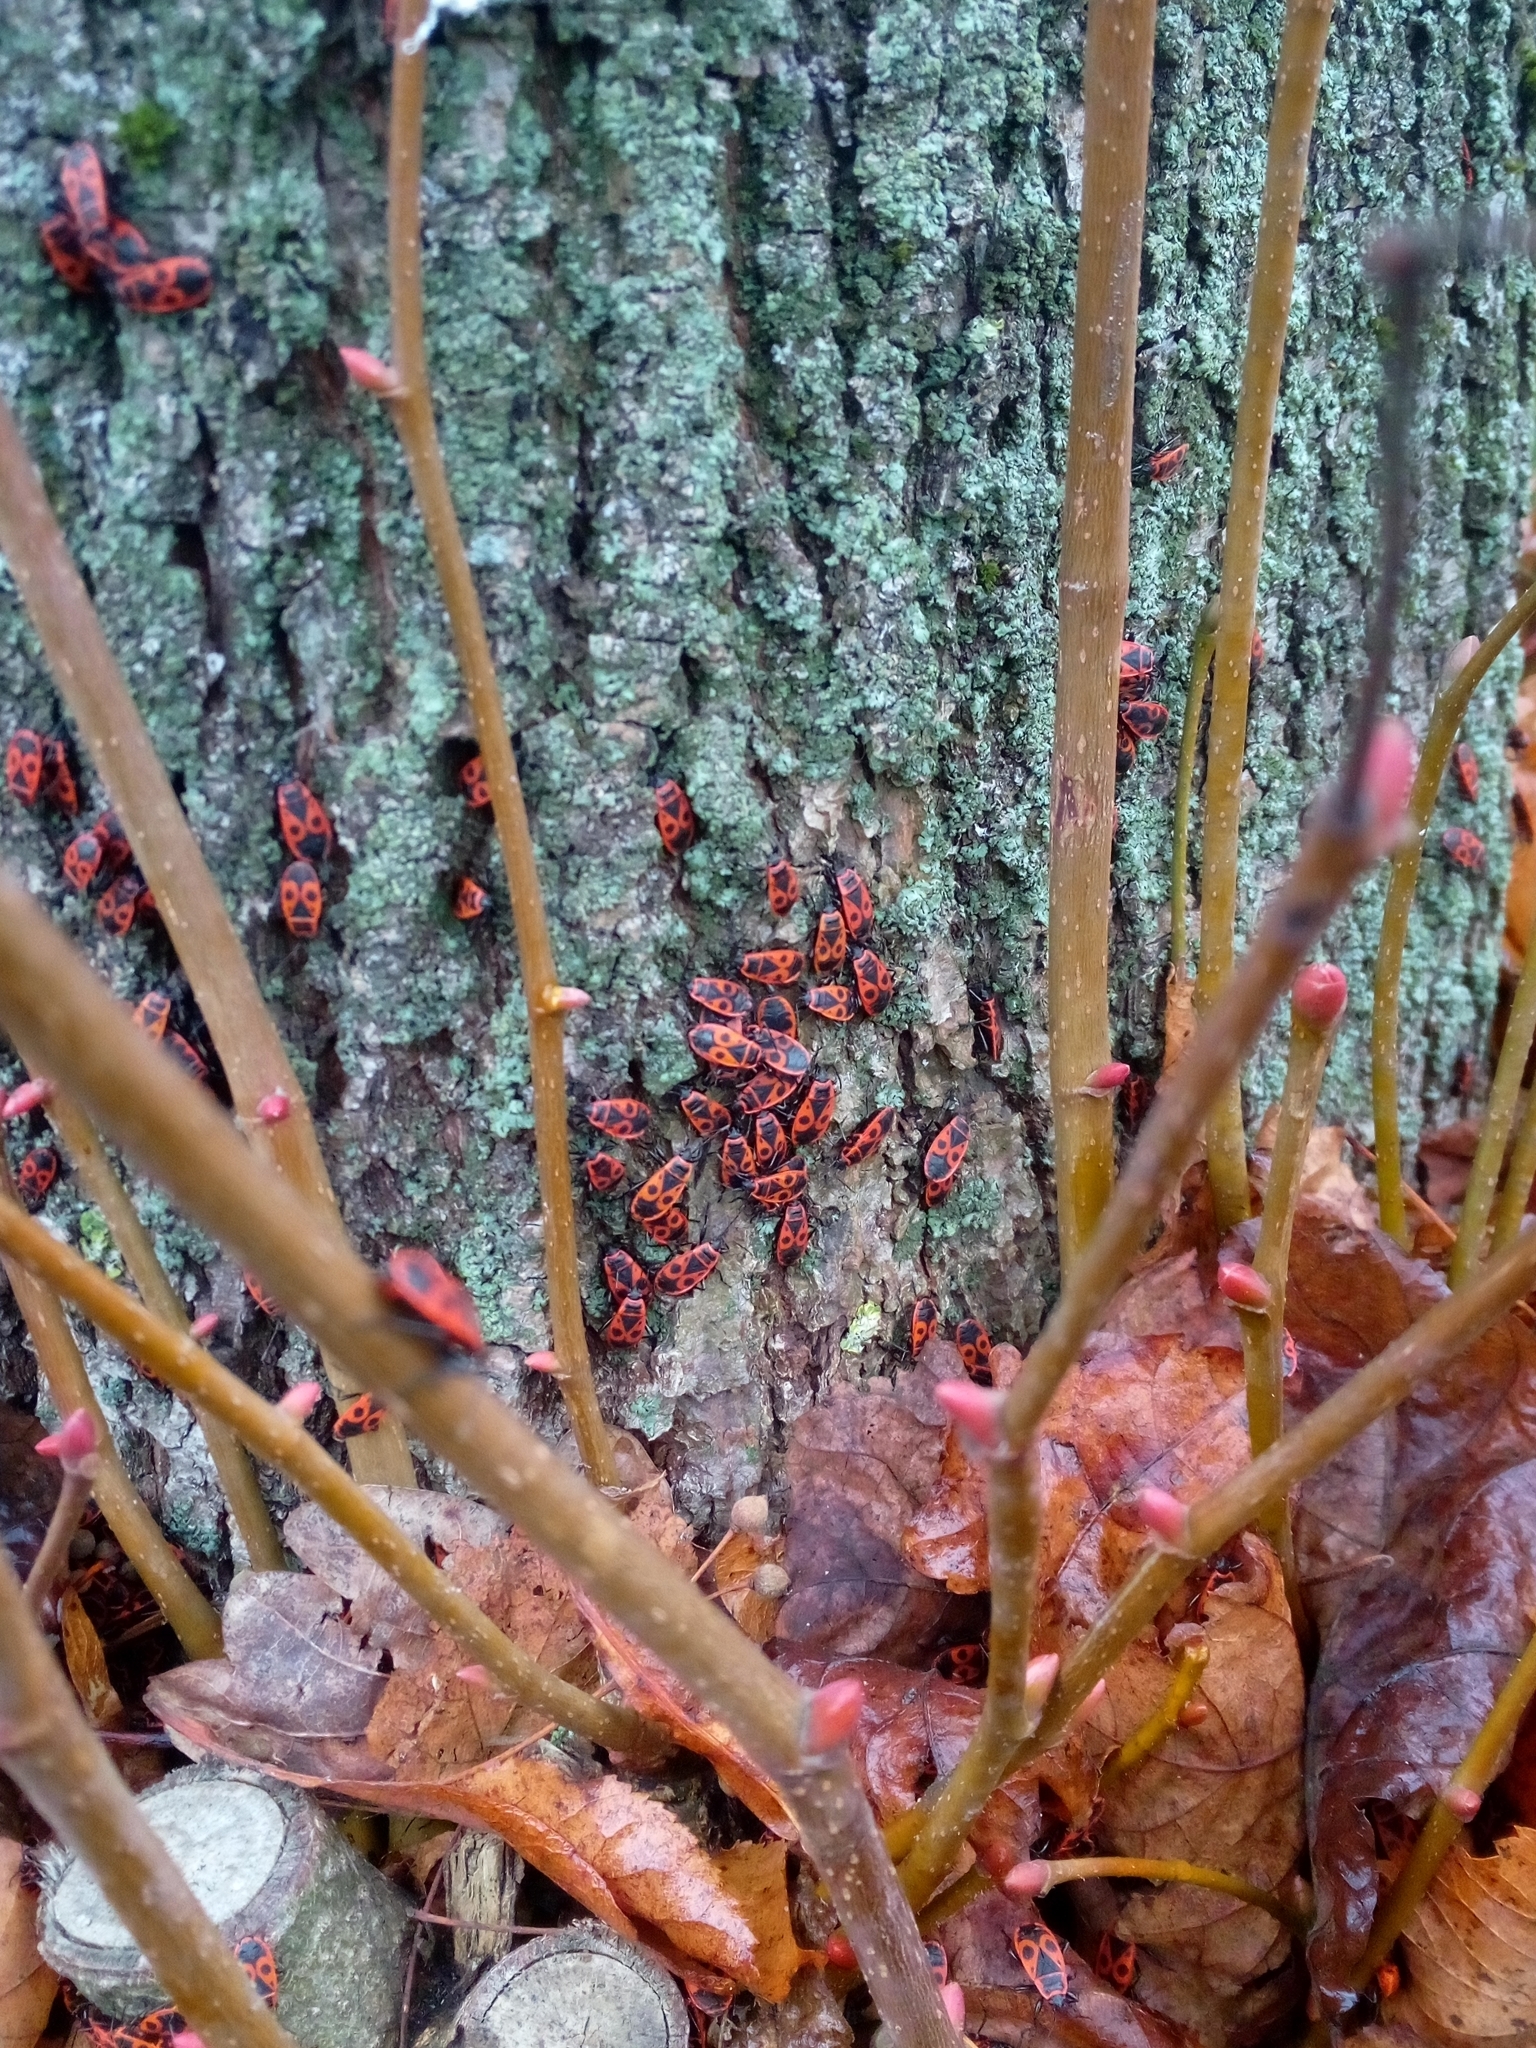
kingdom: Animalia
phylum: Arthropoda
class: Insecta
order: Hemiptera
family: Pyrrhocoridae
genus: Pyrrhocoris
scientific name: Pyrrhocoris apterus
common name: Firebug
